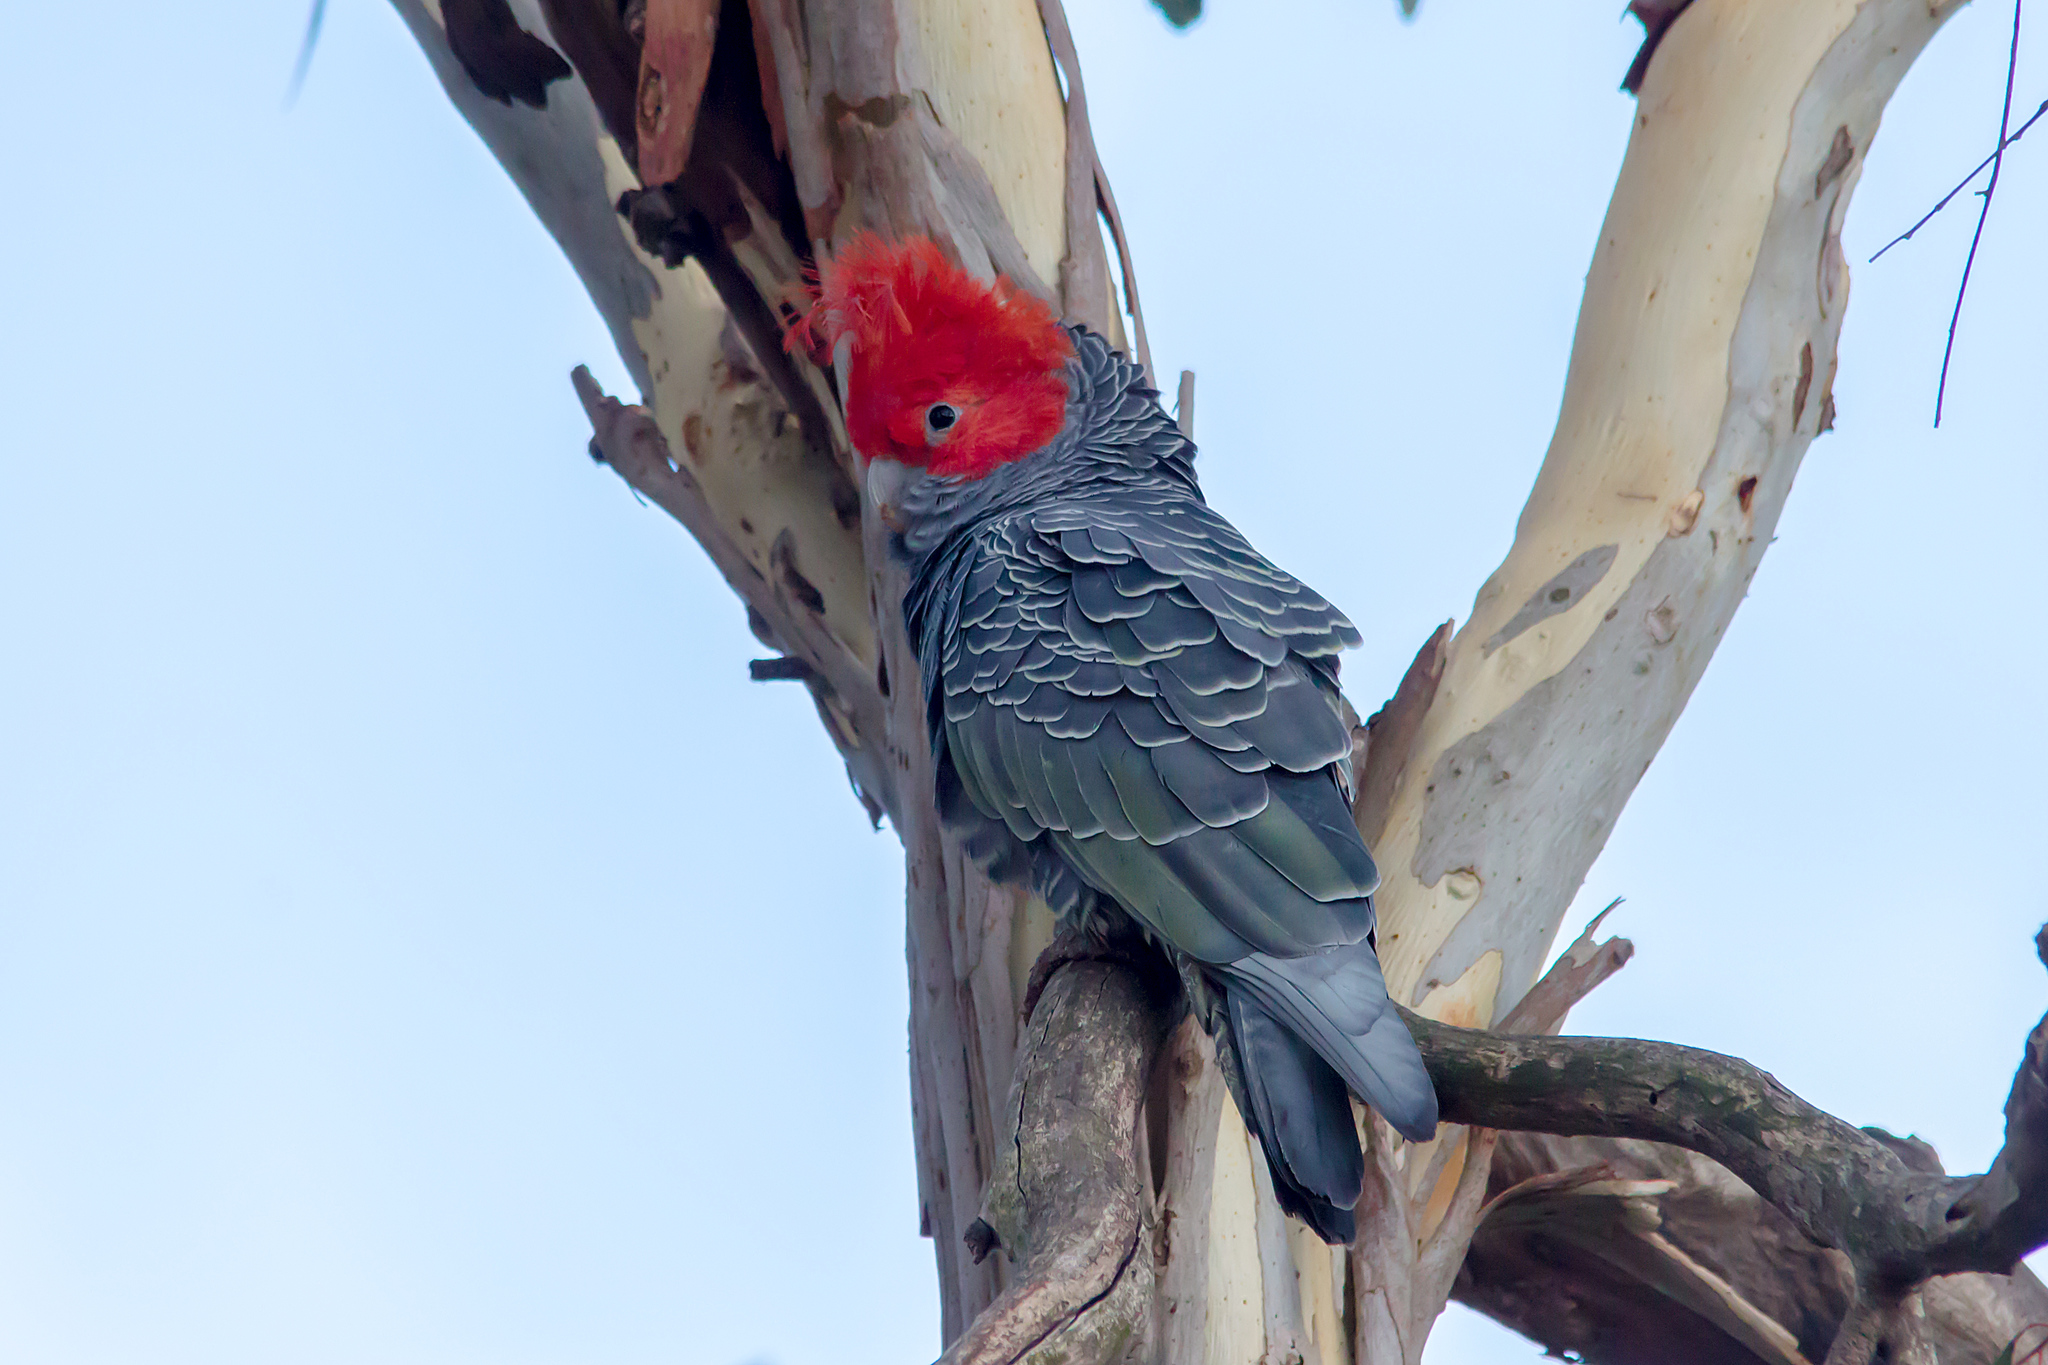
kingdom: Animalia
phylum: Chordata
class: Aves
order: Psittaciformes
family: Psittacidae
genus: Callocephalon
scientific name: Callocephalon fimbriatum
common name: Gang-gang cockatoo
